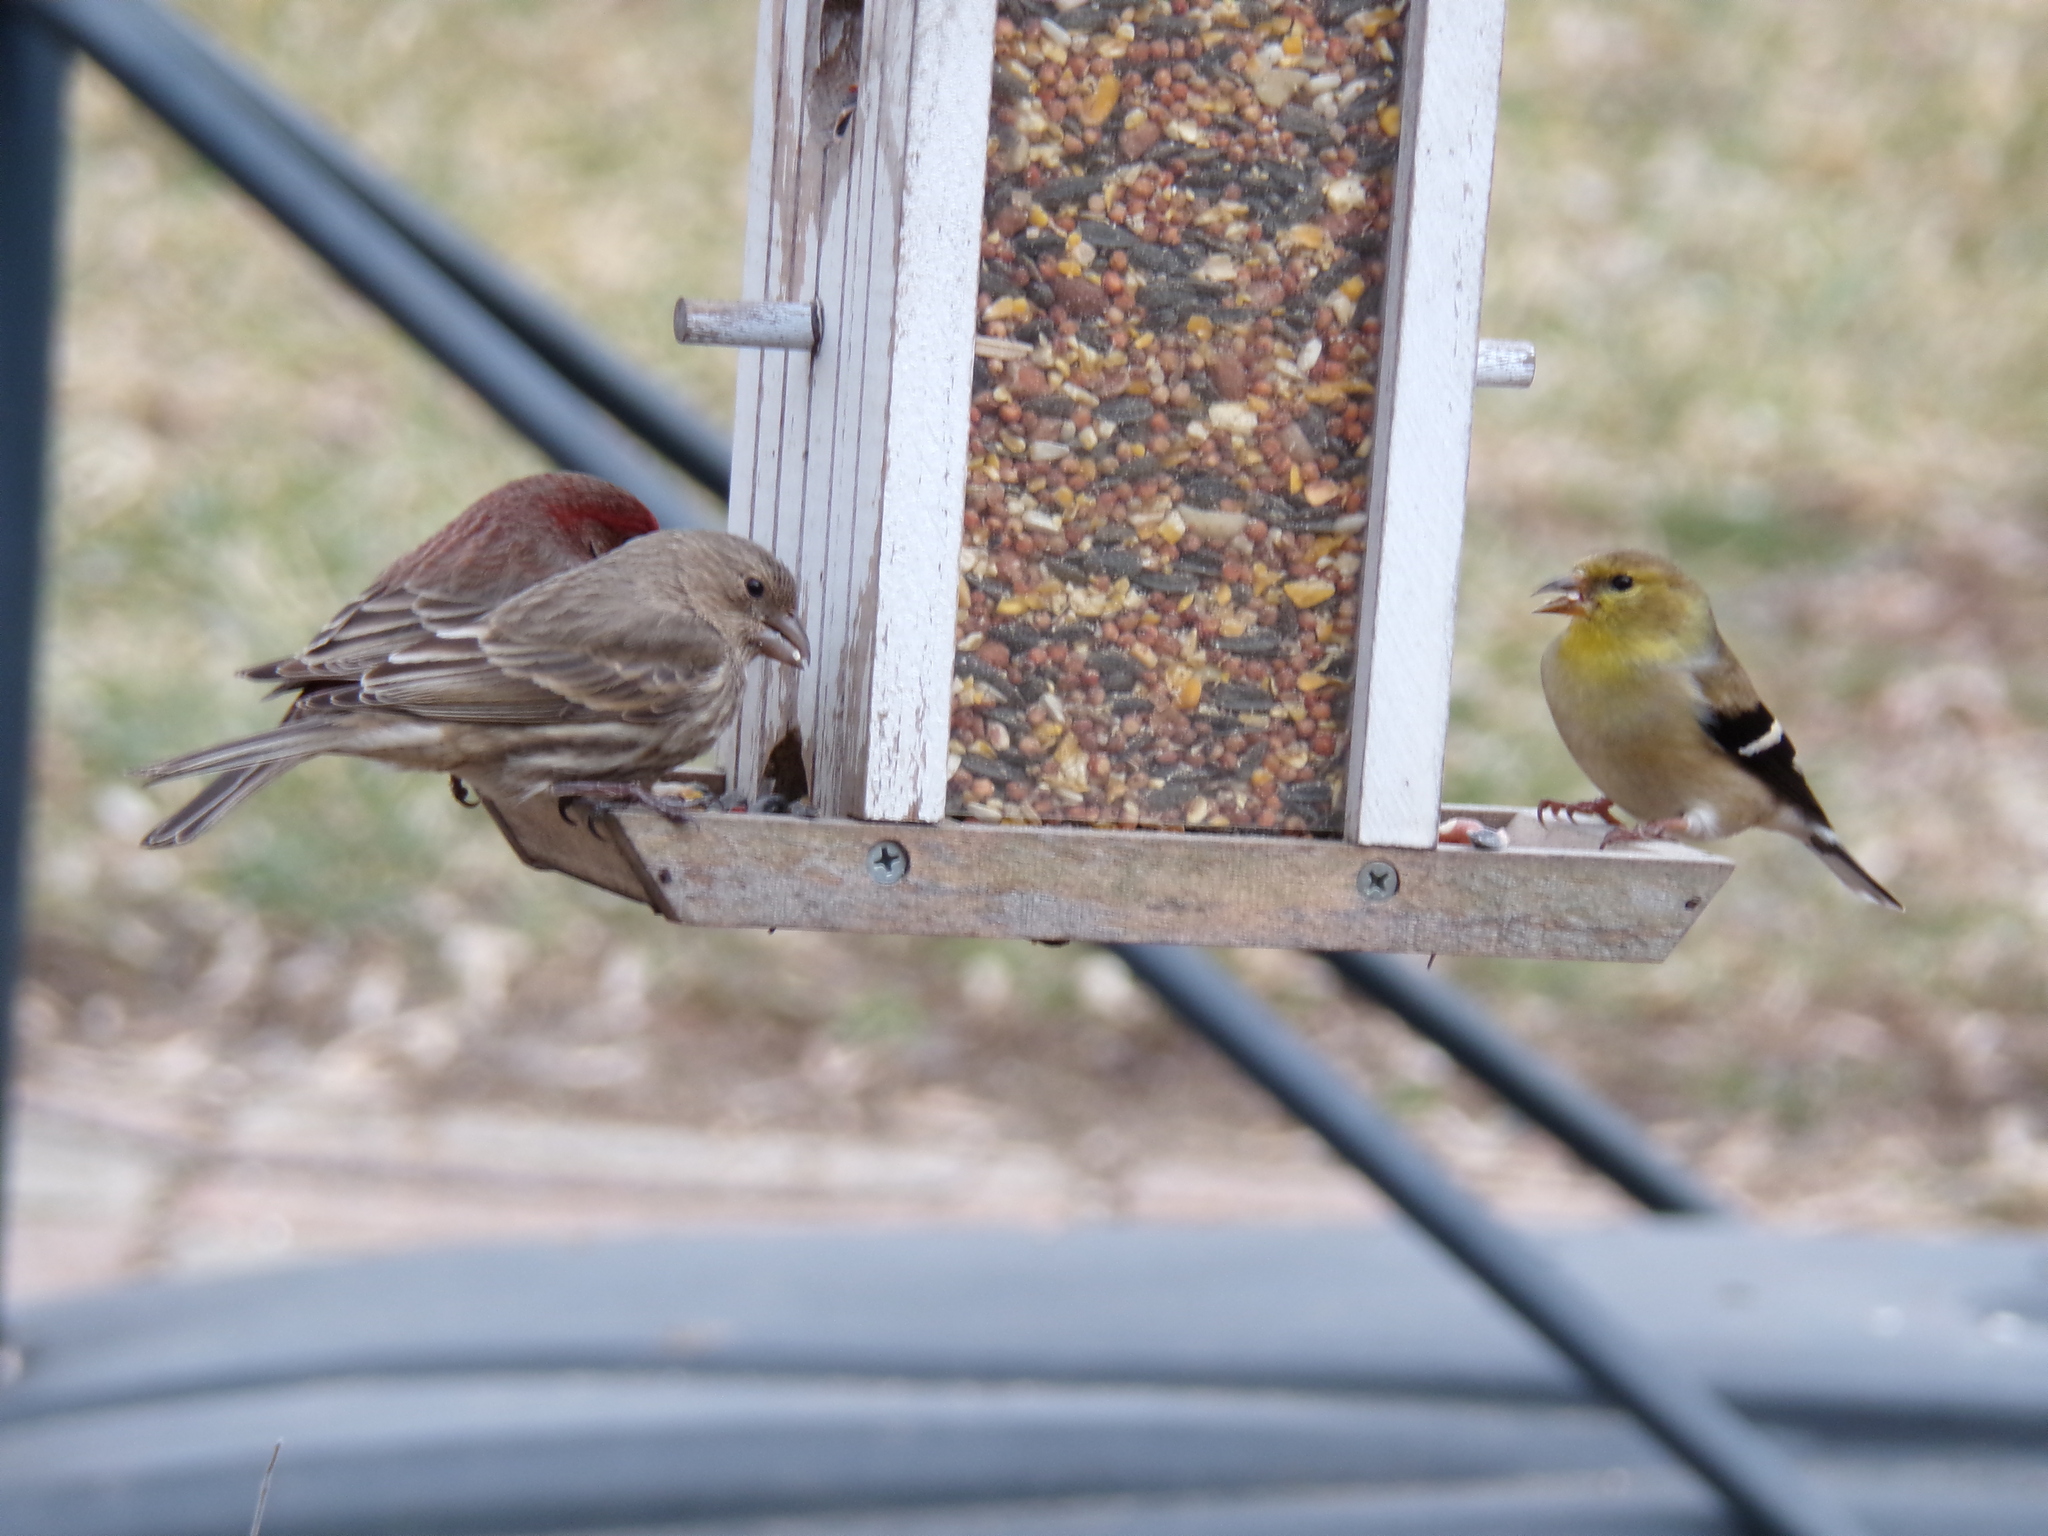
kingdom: Animalia
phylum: Chordata
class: Aves
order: Passeriformes
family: Fringillidae
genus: Haemorhous
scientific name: Haemorhous mexicanus
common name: House finch
